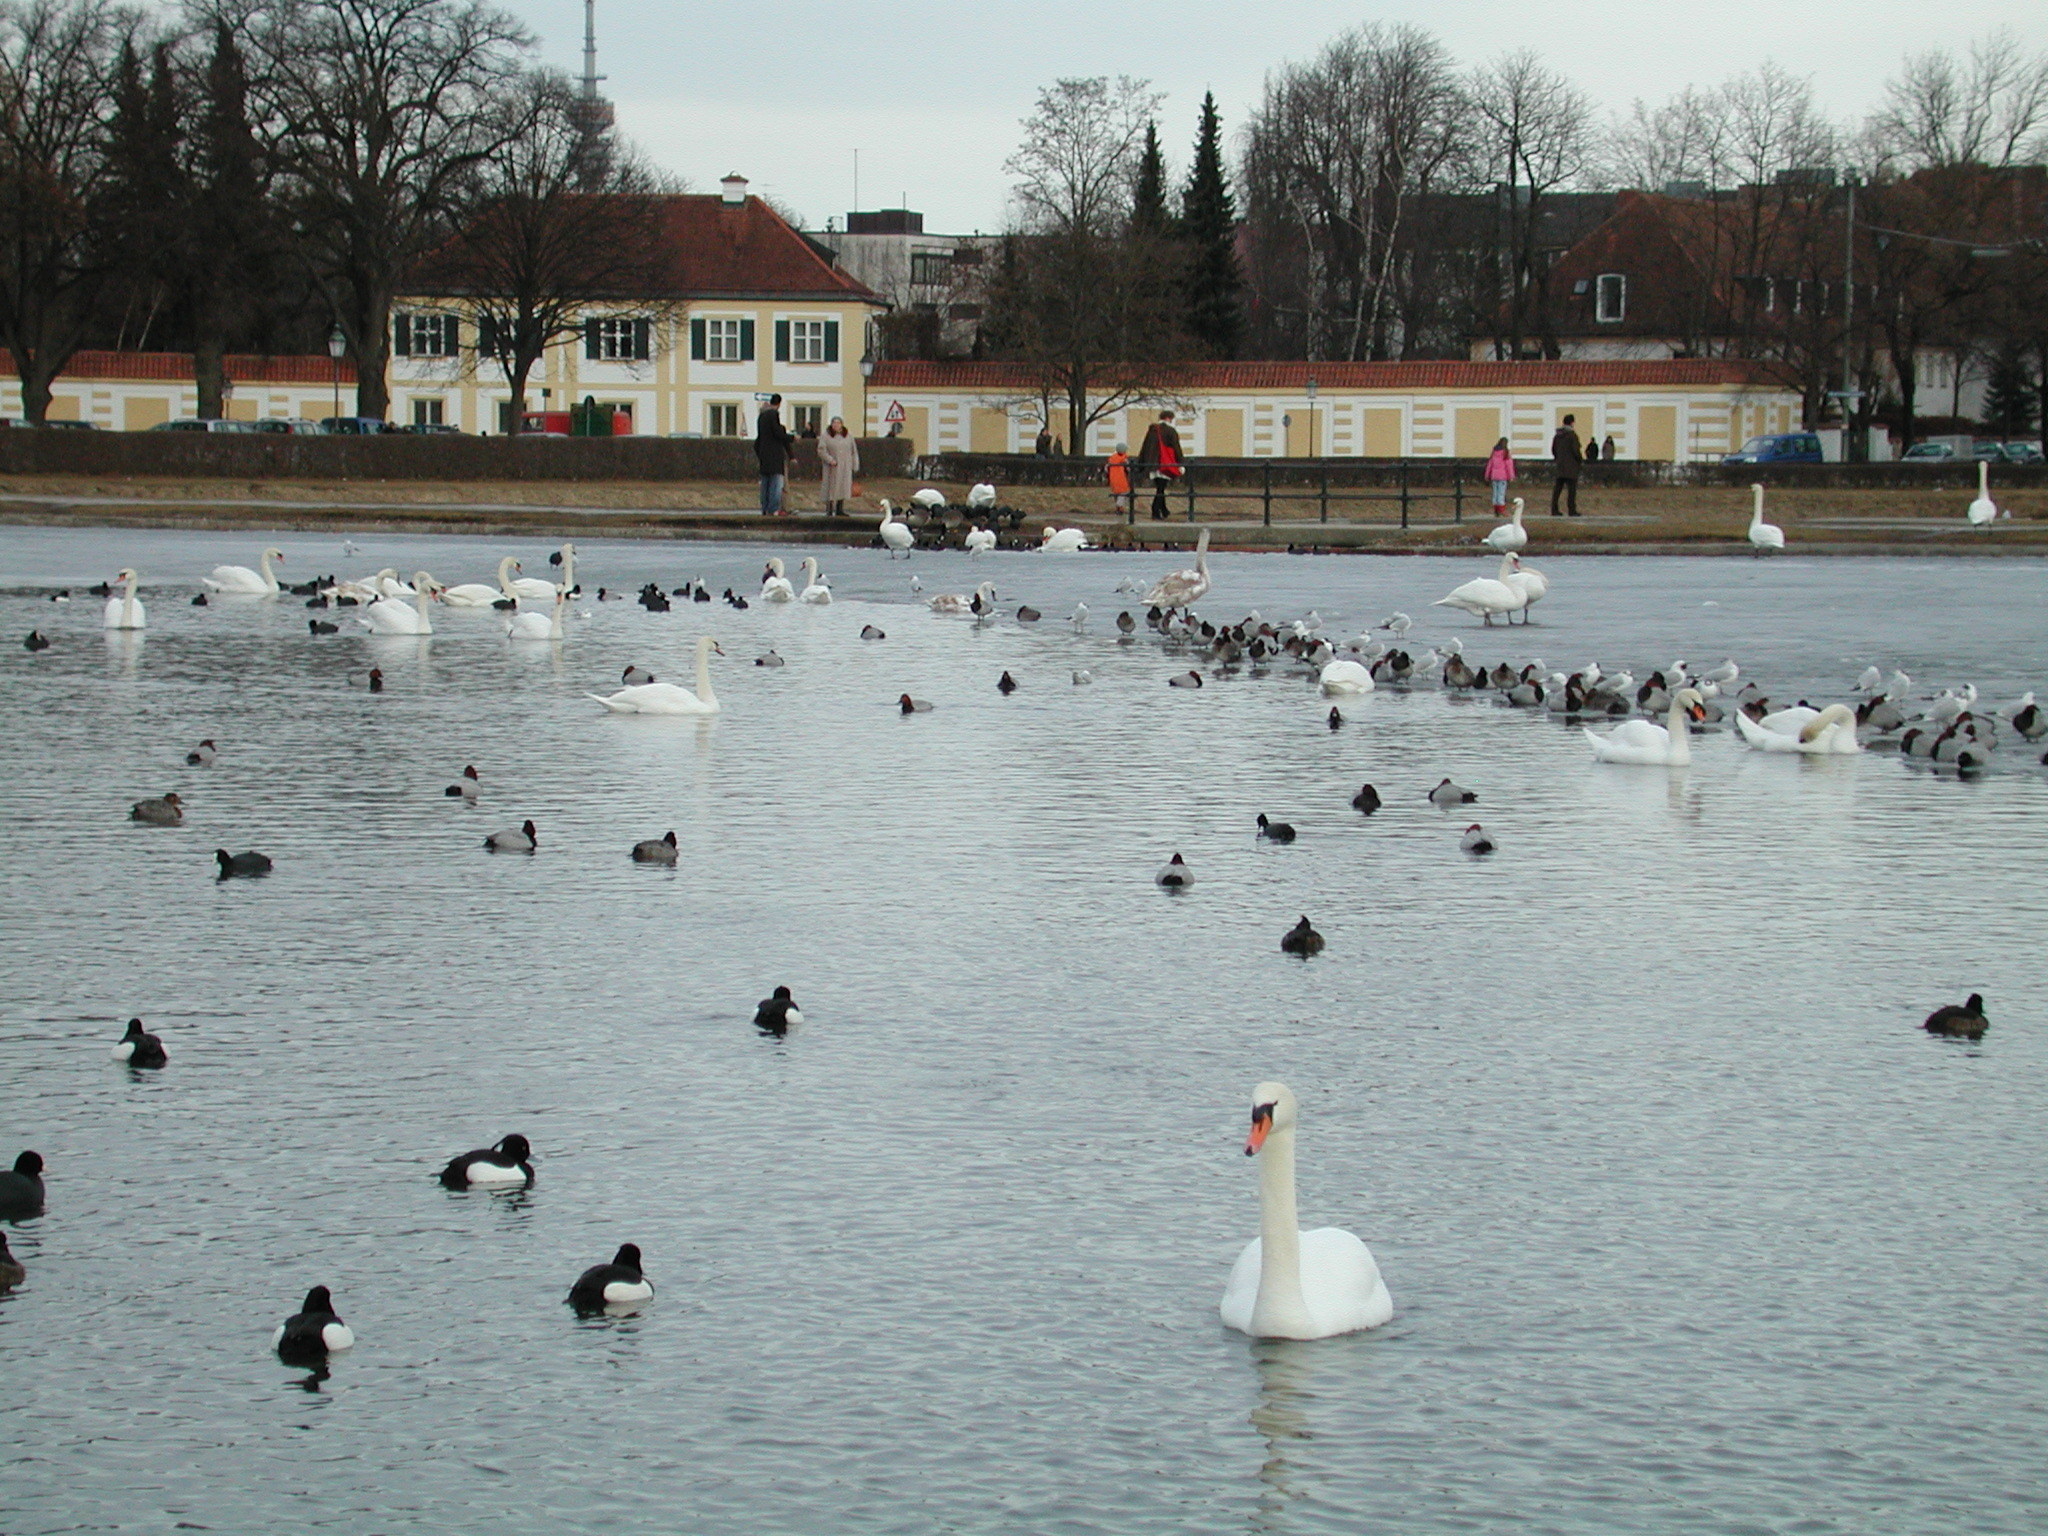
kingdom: Animalia
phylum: Chordata
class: Aves
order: Anseriformes
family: Anatidae
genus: Cygnus
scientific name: Cygnus olor
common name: Mute swan
